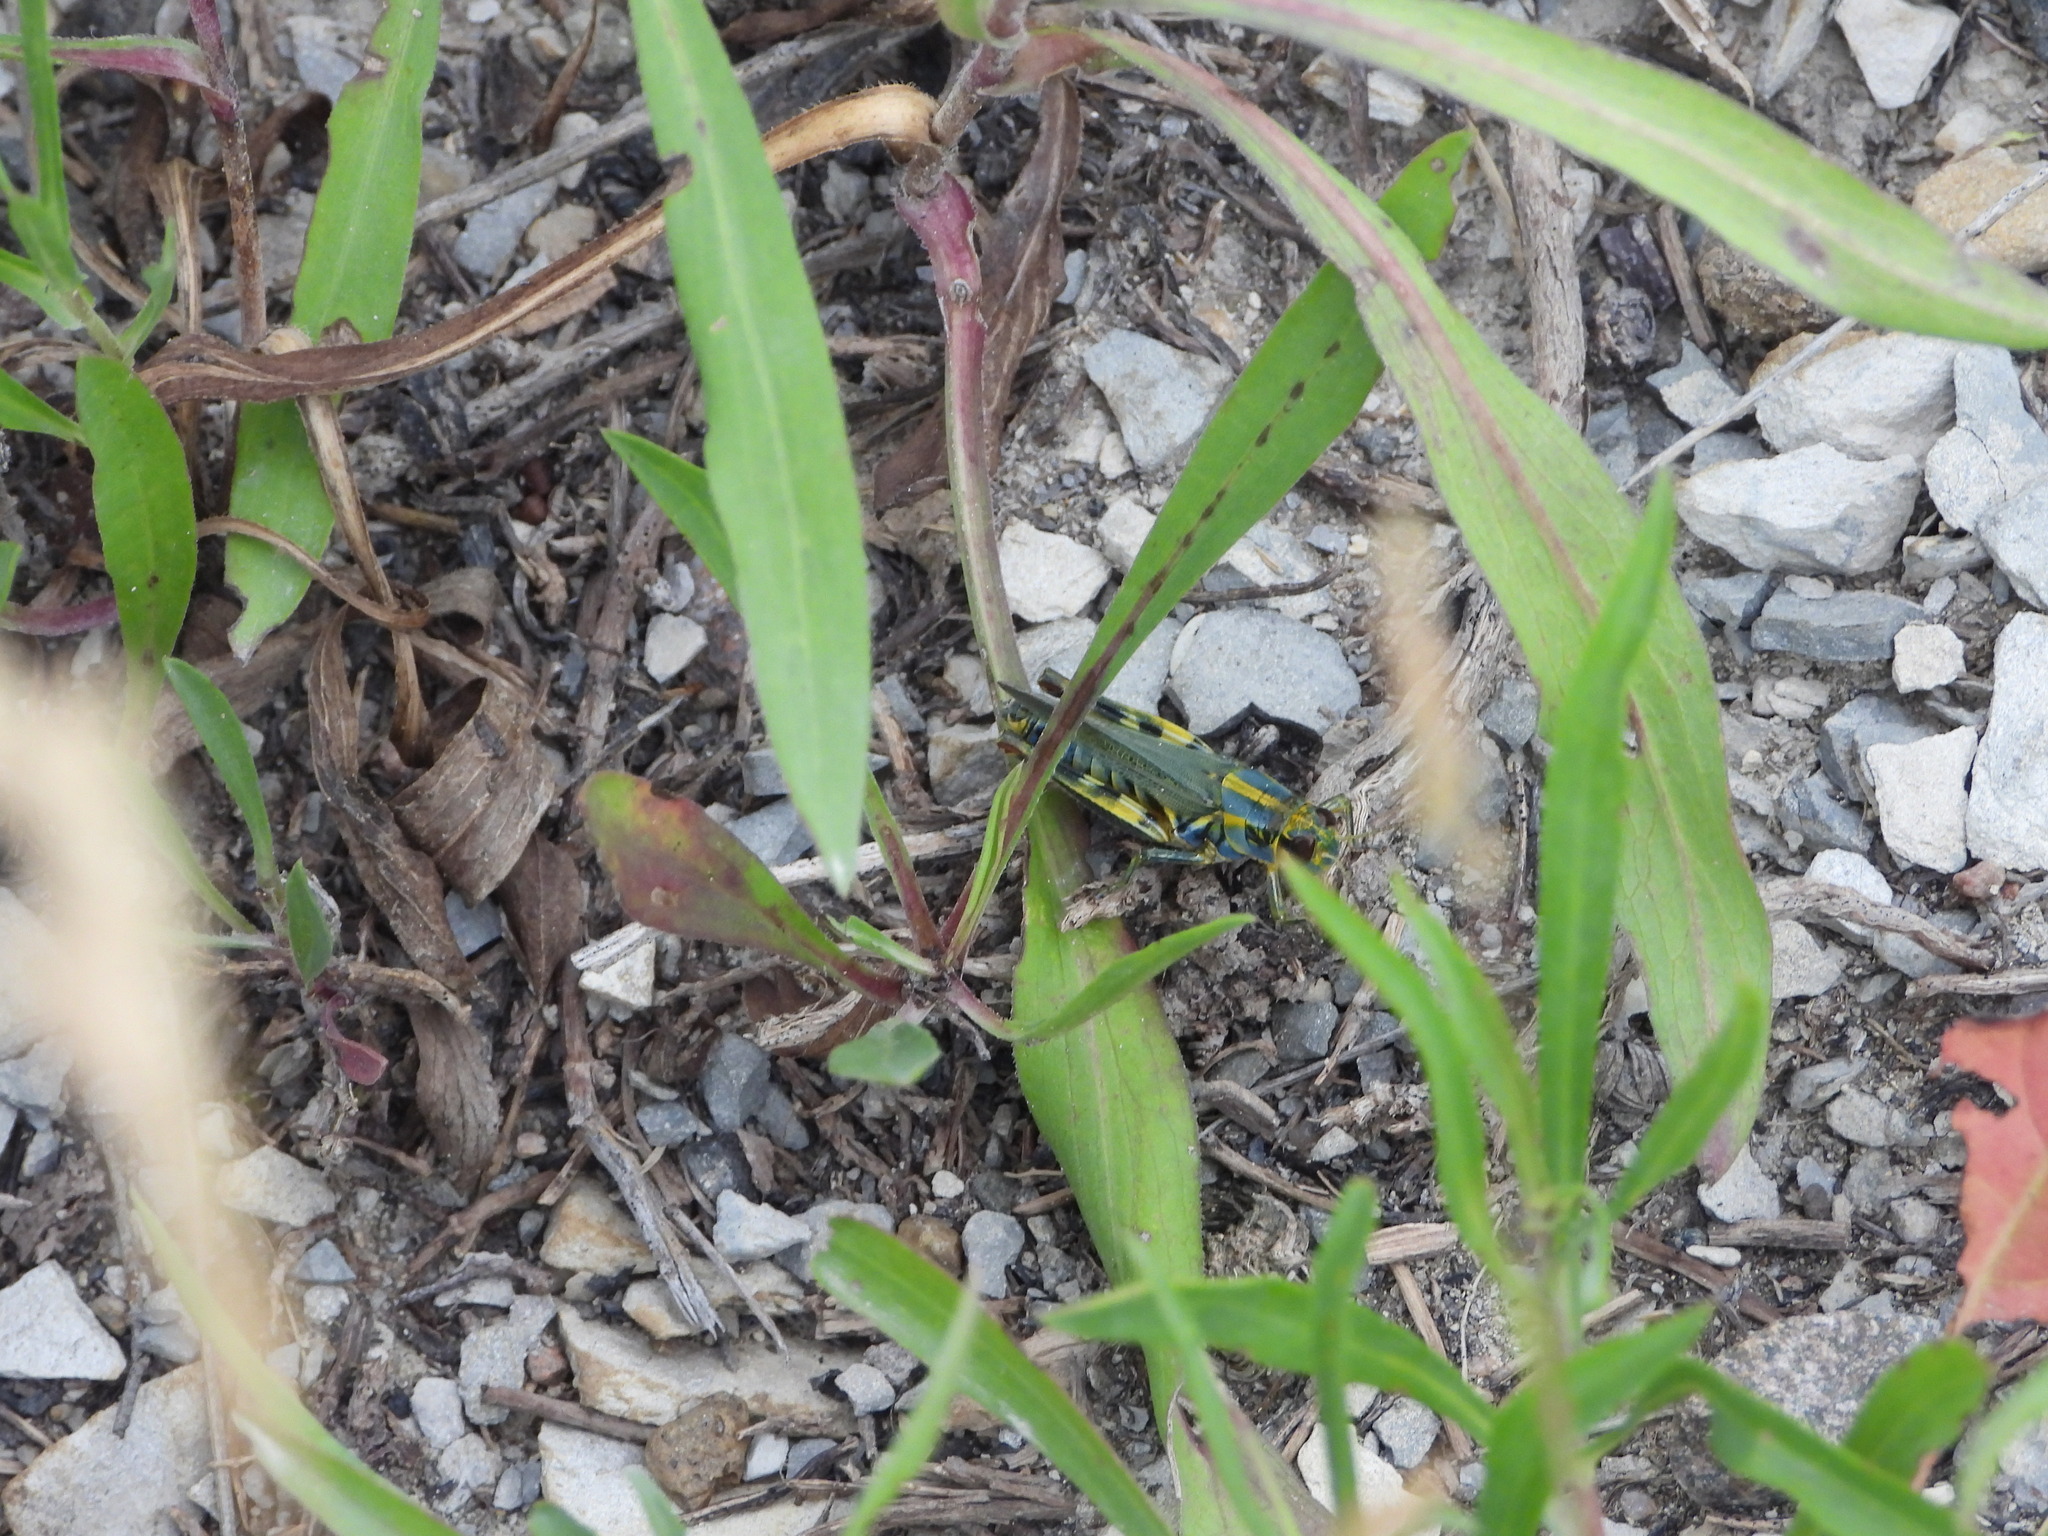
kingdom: Animalia
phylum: Arthropoda
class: Insecta
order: Orthoptera
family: Acrididae
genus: Melanoplus
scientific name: Melanoplus femurrubrum
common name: Red-legged grasshopper
